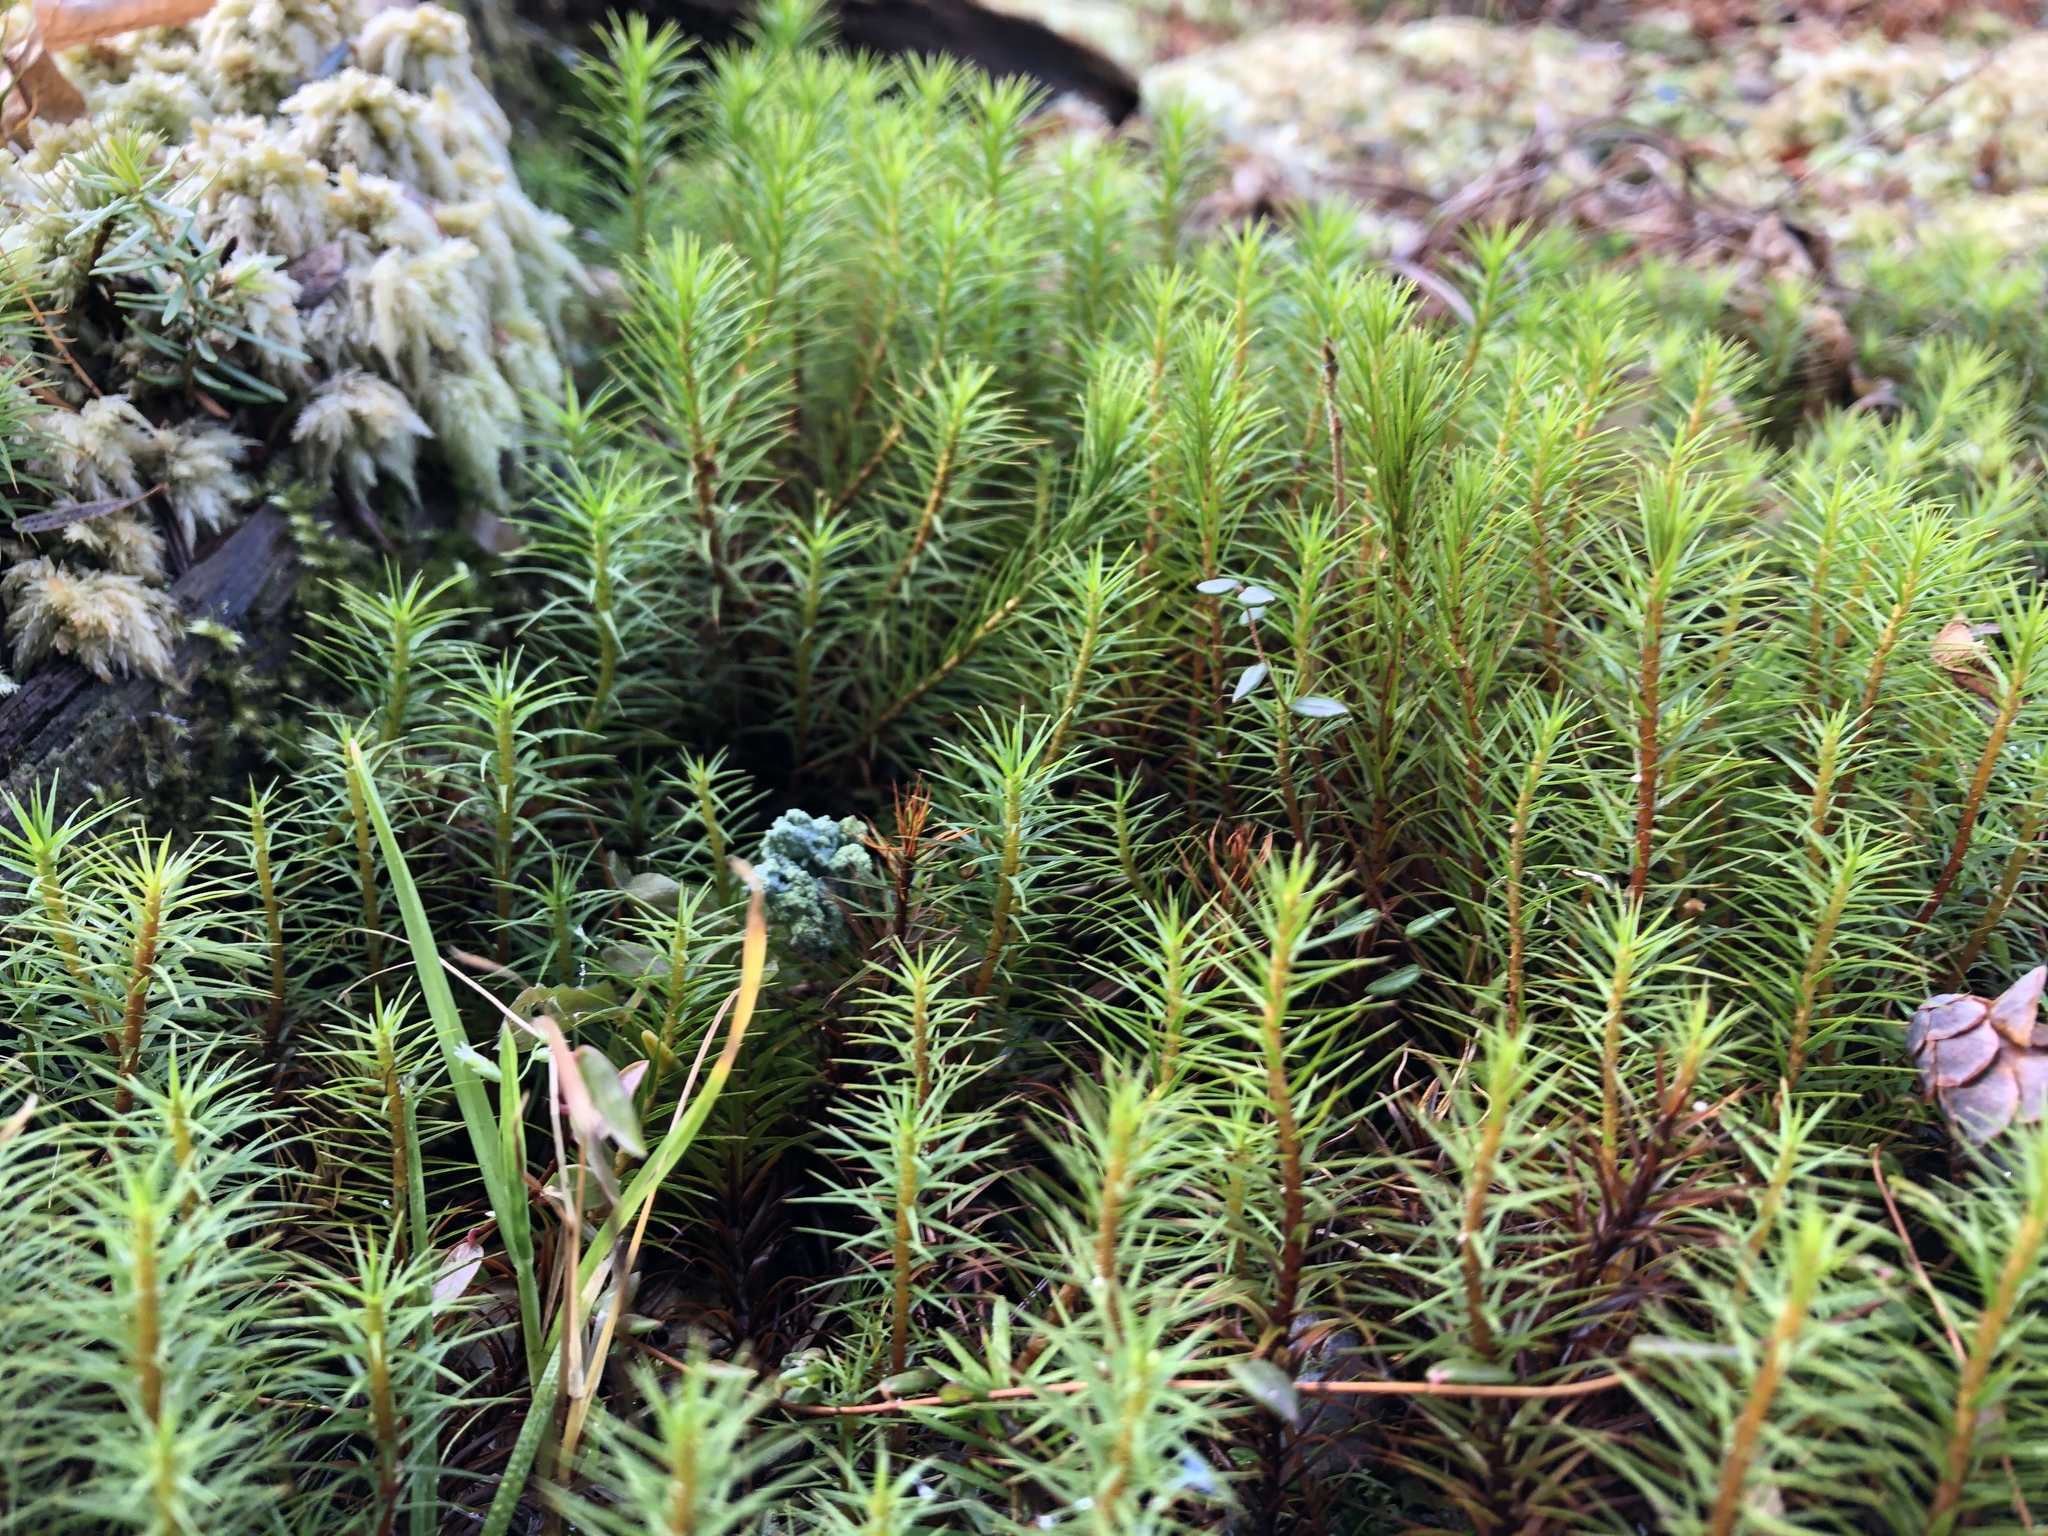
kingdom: Plantae
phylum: Bryophyta
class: Polytrichopsida
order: Polytrichales
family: Polytrichaceae
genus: Polytrichum
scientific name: Polytrichum commune
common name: Common haircap
